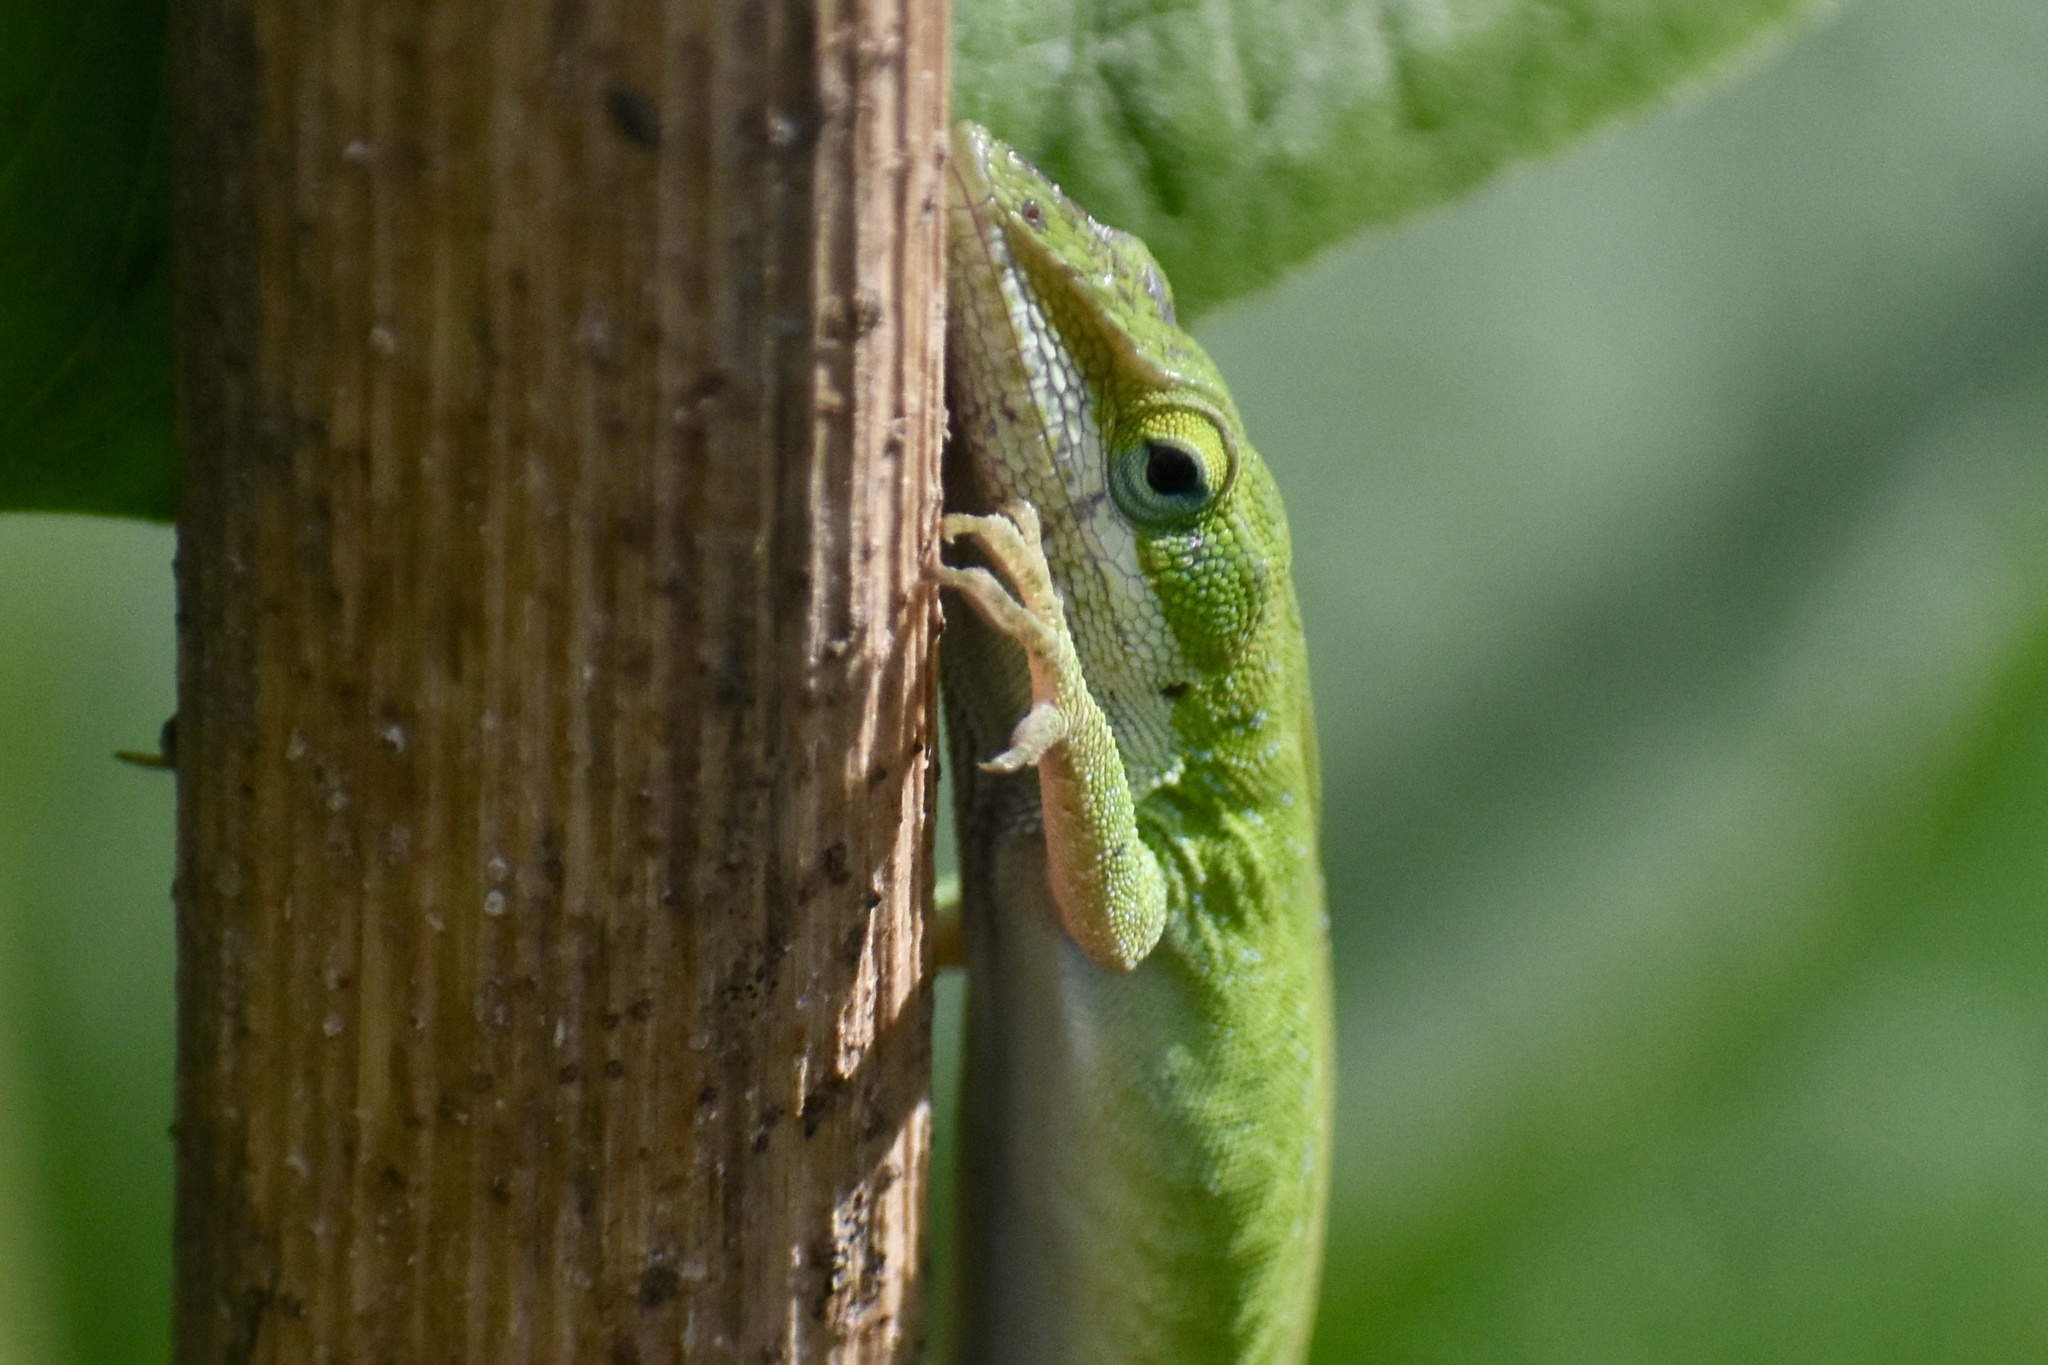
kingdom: Animalia
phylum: Chordata
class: Squamata
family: Dactyloidae
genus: Anolis
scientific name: Anolis carolinensis
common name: Green anole
